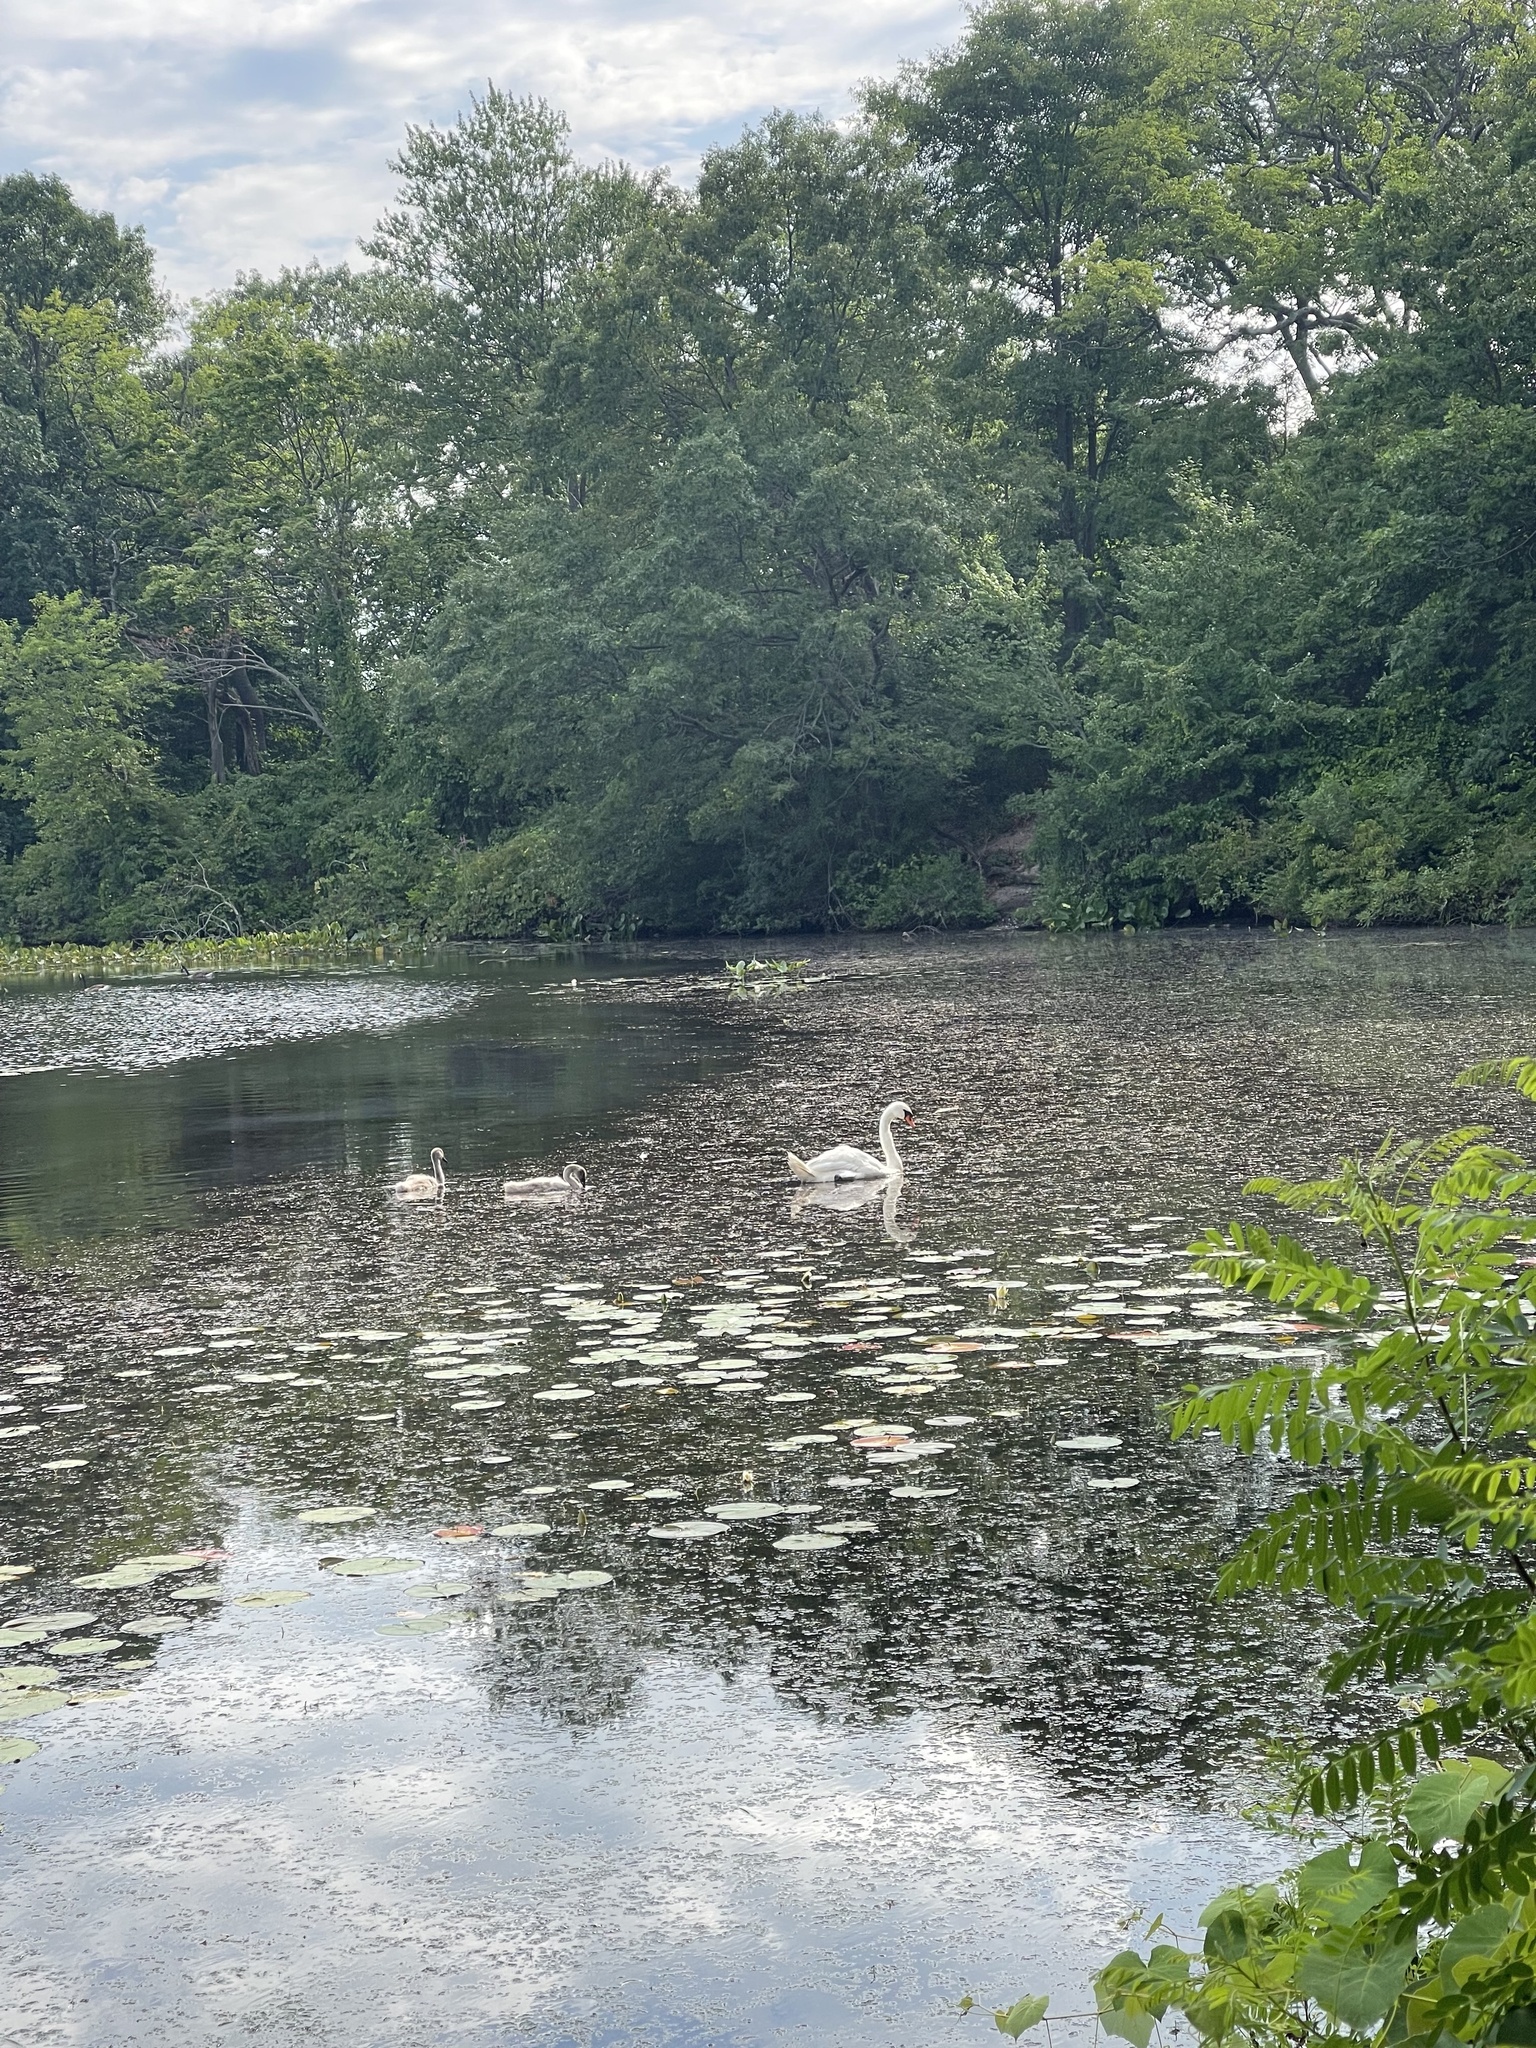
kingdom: Animalia
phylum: Chordata
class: Aves
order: Anseriformes
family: Anatidae
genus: Cygnus
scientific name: Cygnus olor
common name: Mute swan
